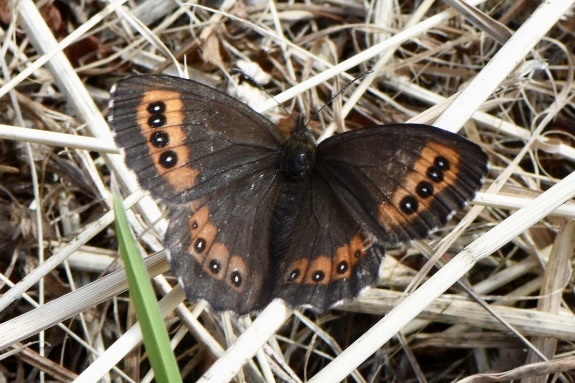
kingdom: Animalia
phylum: Arthropoda
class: Insecta
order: Lepidoptera
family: Nymphalidae
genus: Erebia
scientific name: Erebia ligea
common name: Arran brown
